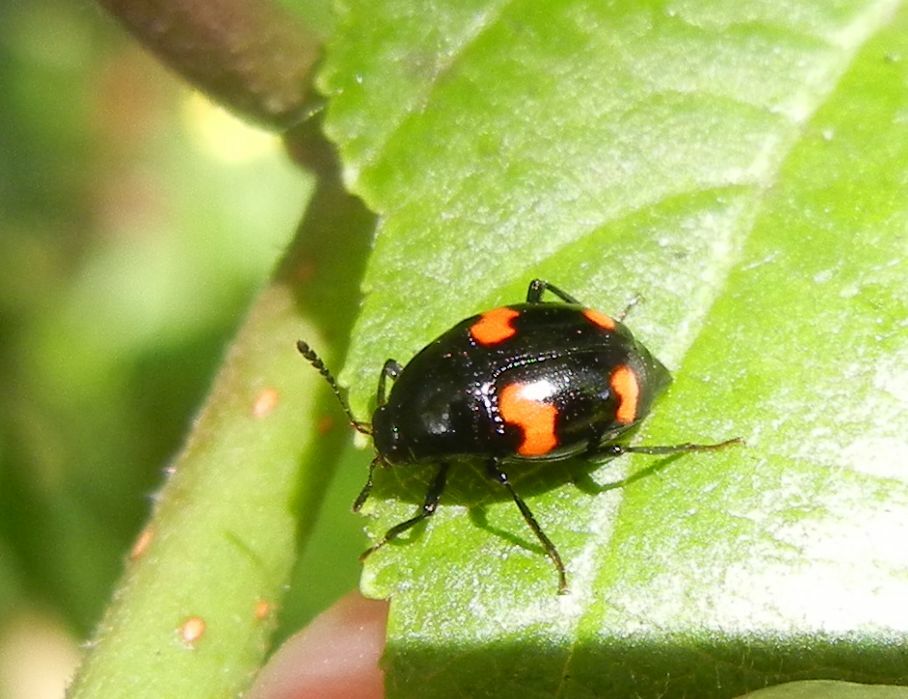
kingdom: Animalia
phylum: Arthropoda
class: Insecta
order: Coleoptera
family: Staphylinidae
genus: Scaphidium
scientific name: Scaphidium quadrimaculatum
